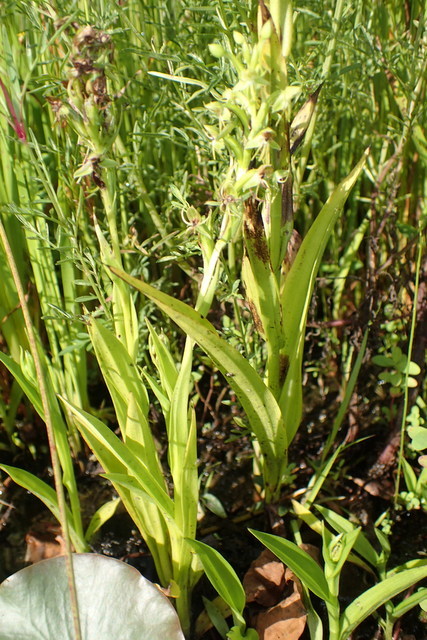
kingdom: Plantae
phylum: Tracheophyta
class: Liliopsida
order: Asparagales
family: Orchidaceae
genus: Habenaria
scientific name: Habenaria repens
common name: Water orchid
